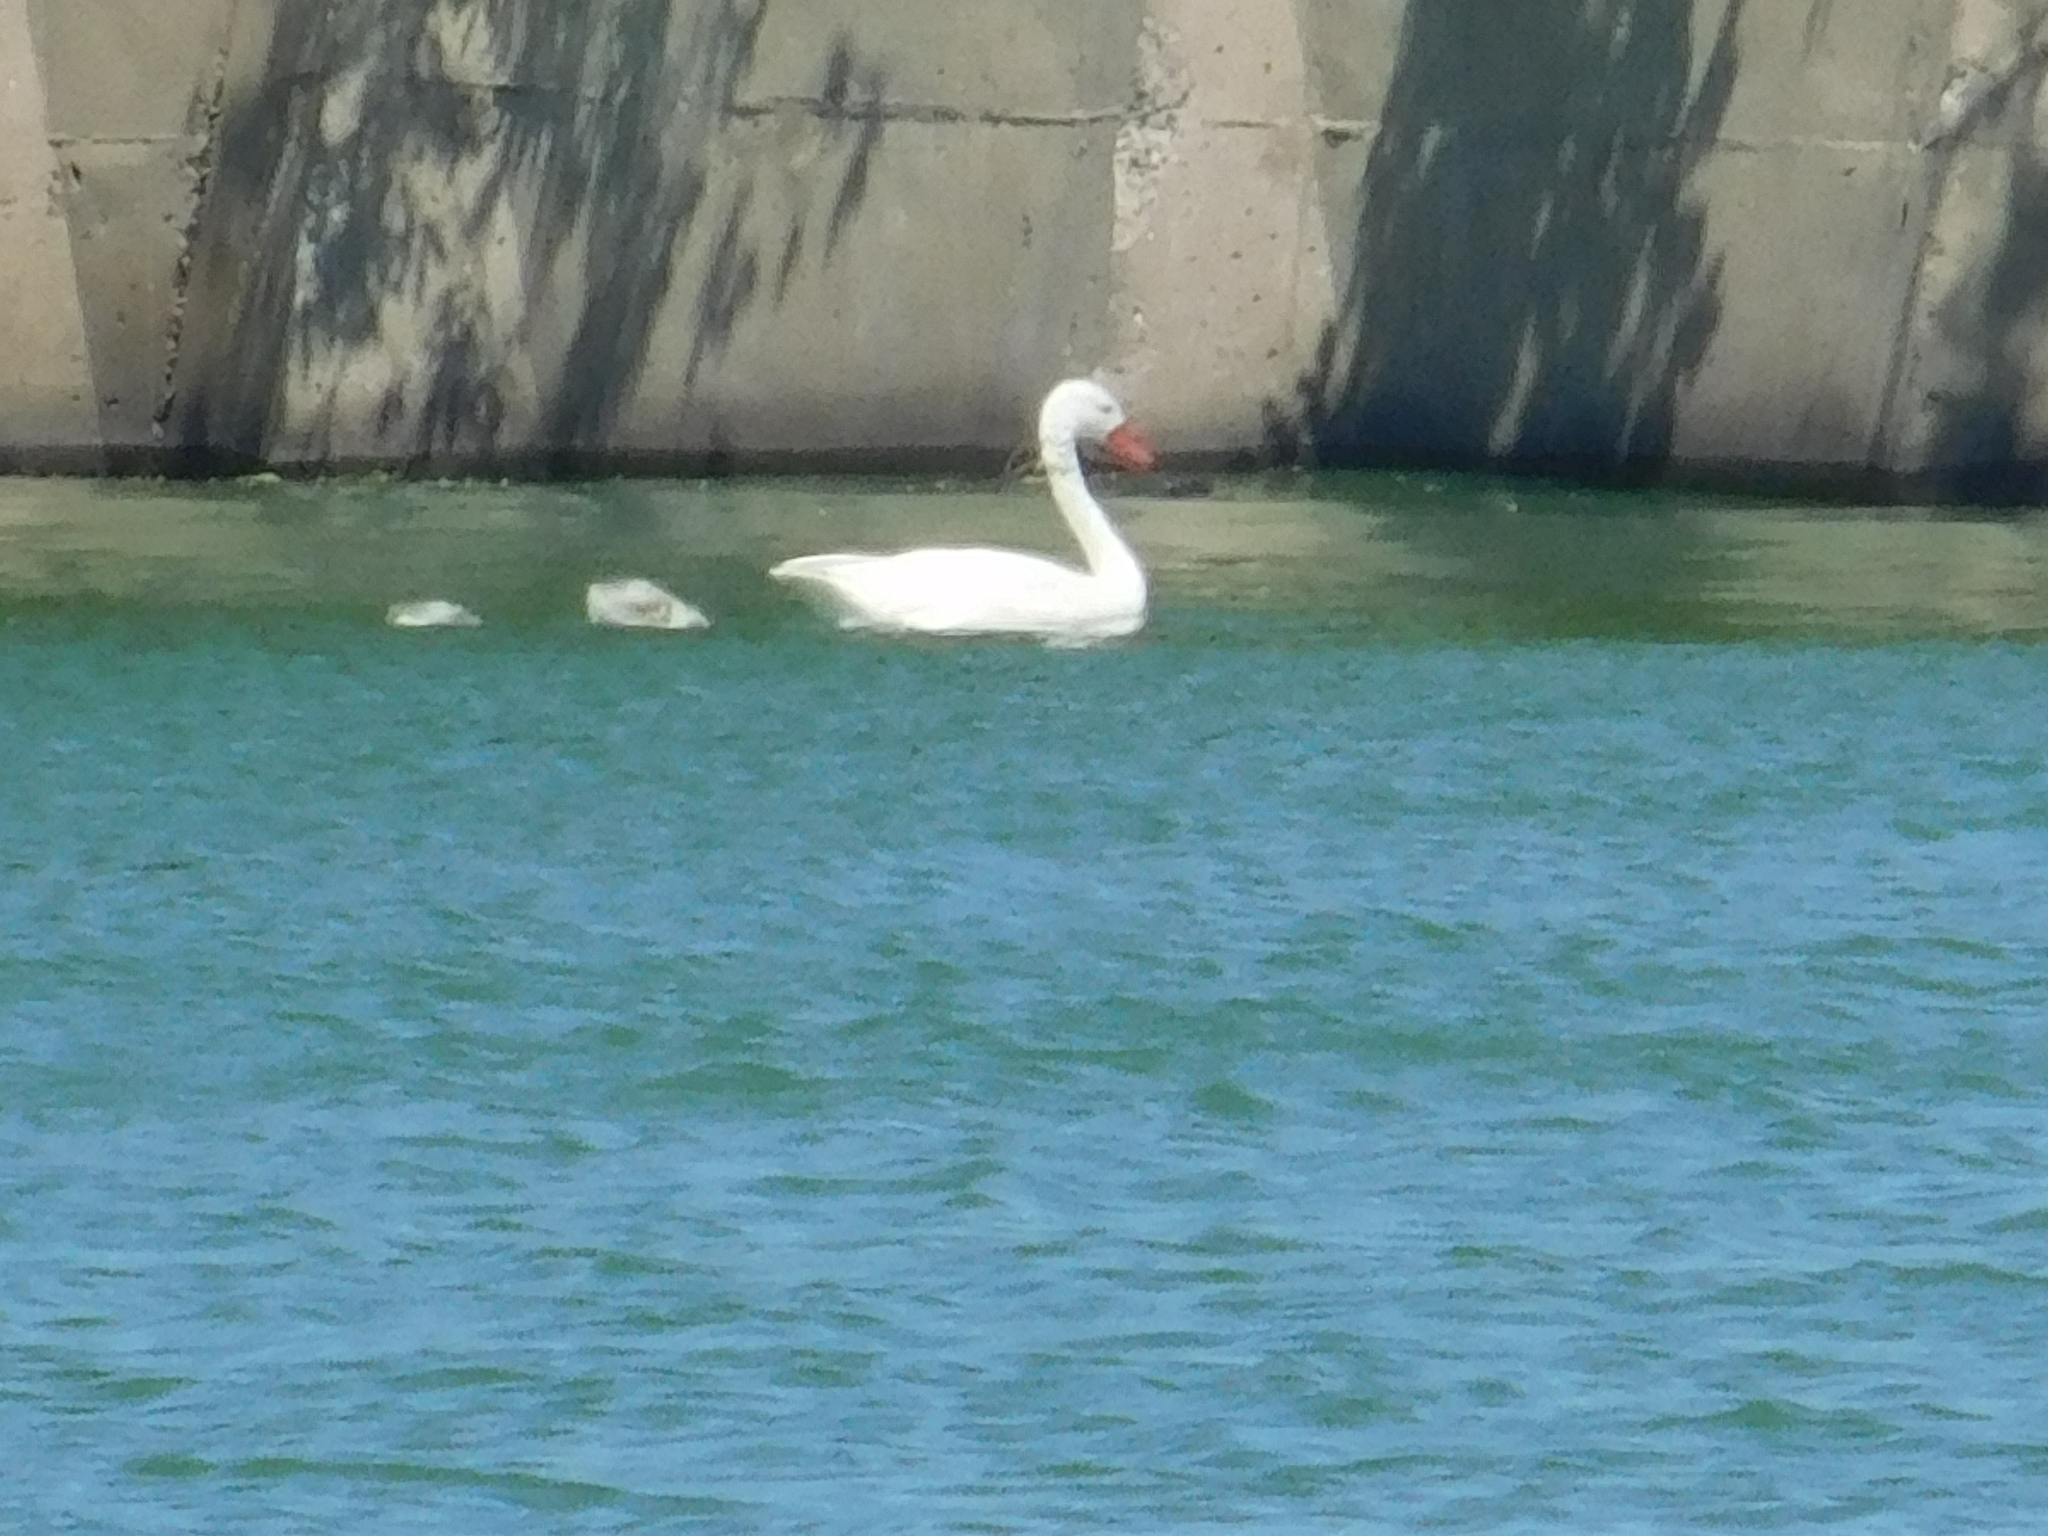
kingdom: Animalia
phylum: Chordata
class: Aves
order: Anseriformes
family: Anatidae
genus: Coscoroba
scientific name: Coscoroba coscoroba
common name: Coscoroba swan
